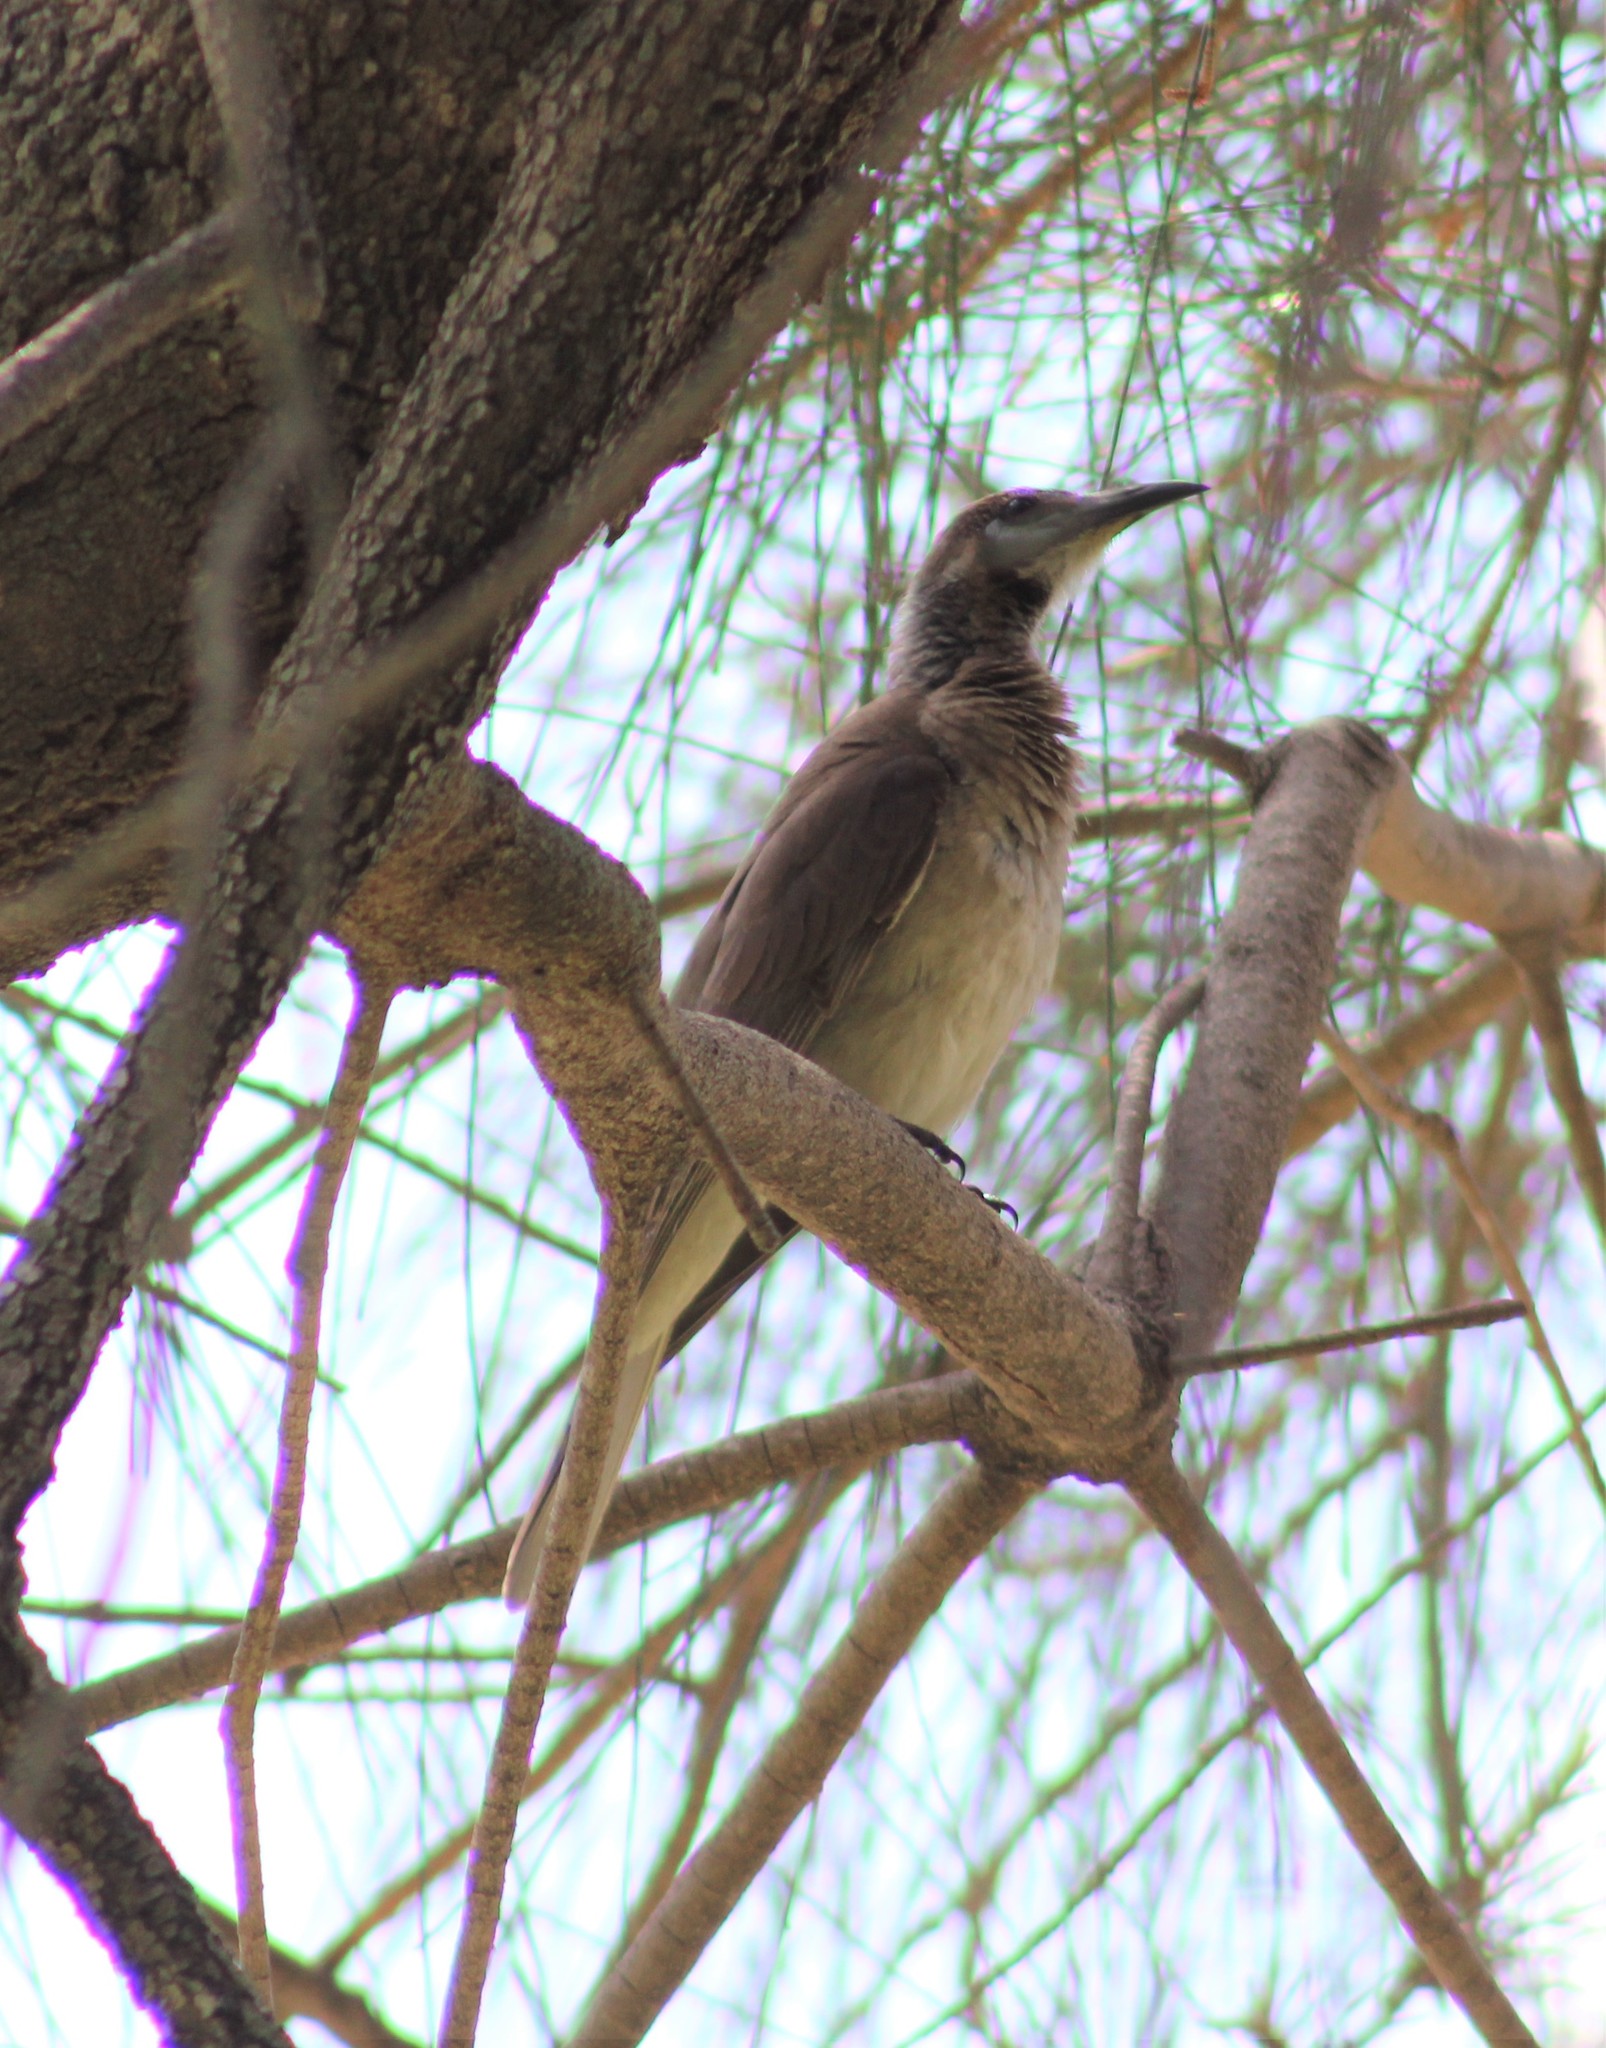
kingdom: Animalia
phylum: Chordata
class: Aves
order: Passeriformes
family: Meliphagidae
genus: Philemon
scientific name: Philemon citreogularis
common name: Little friarbird
